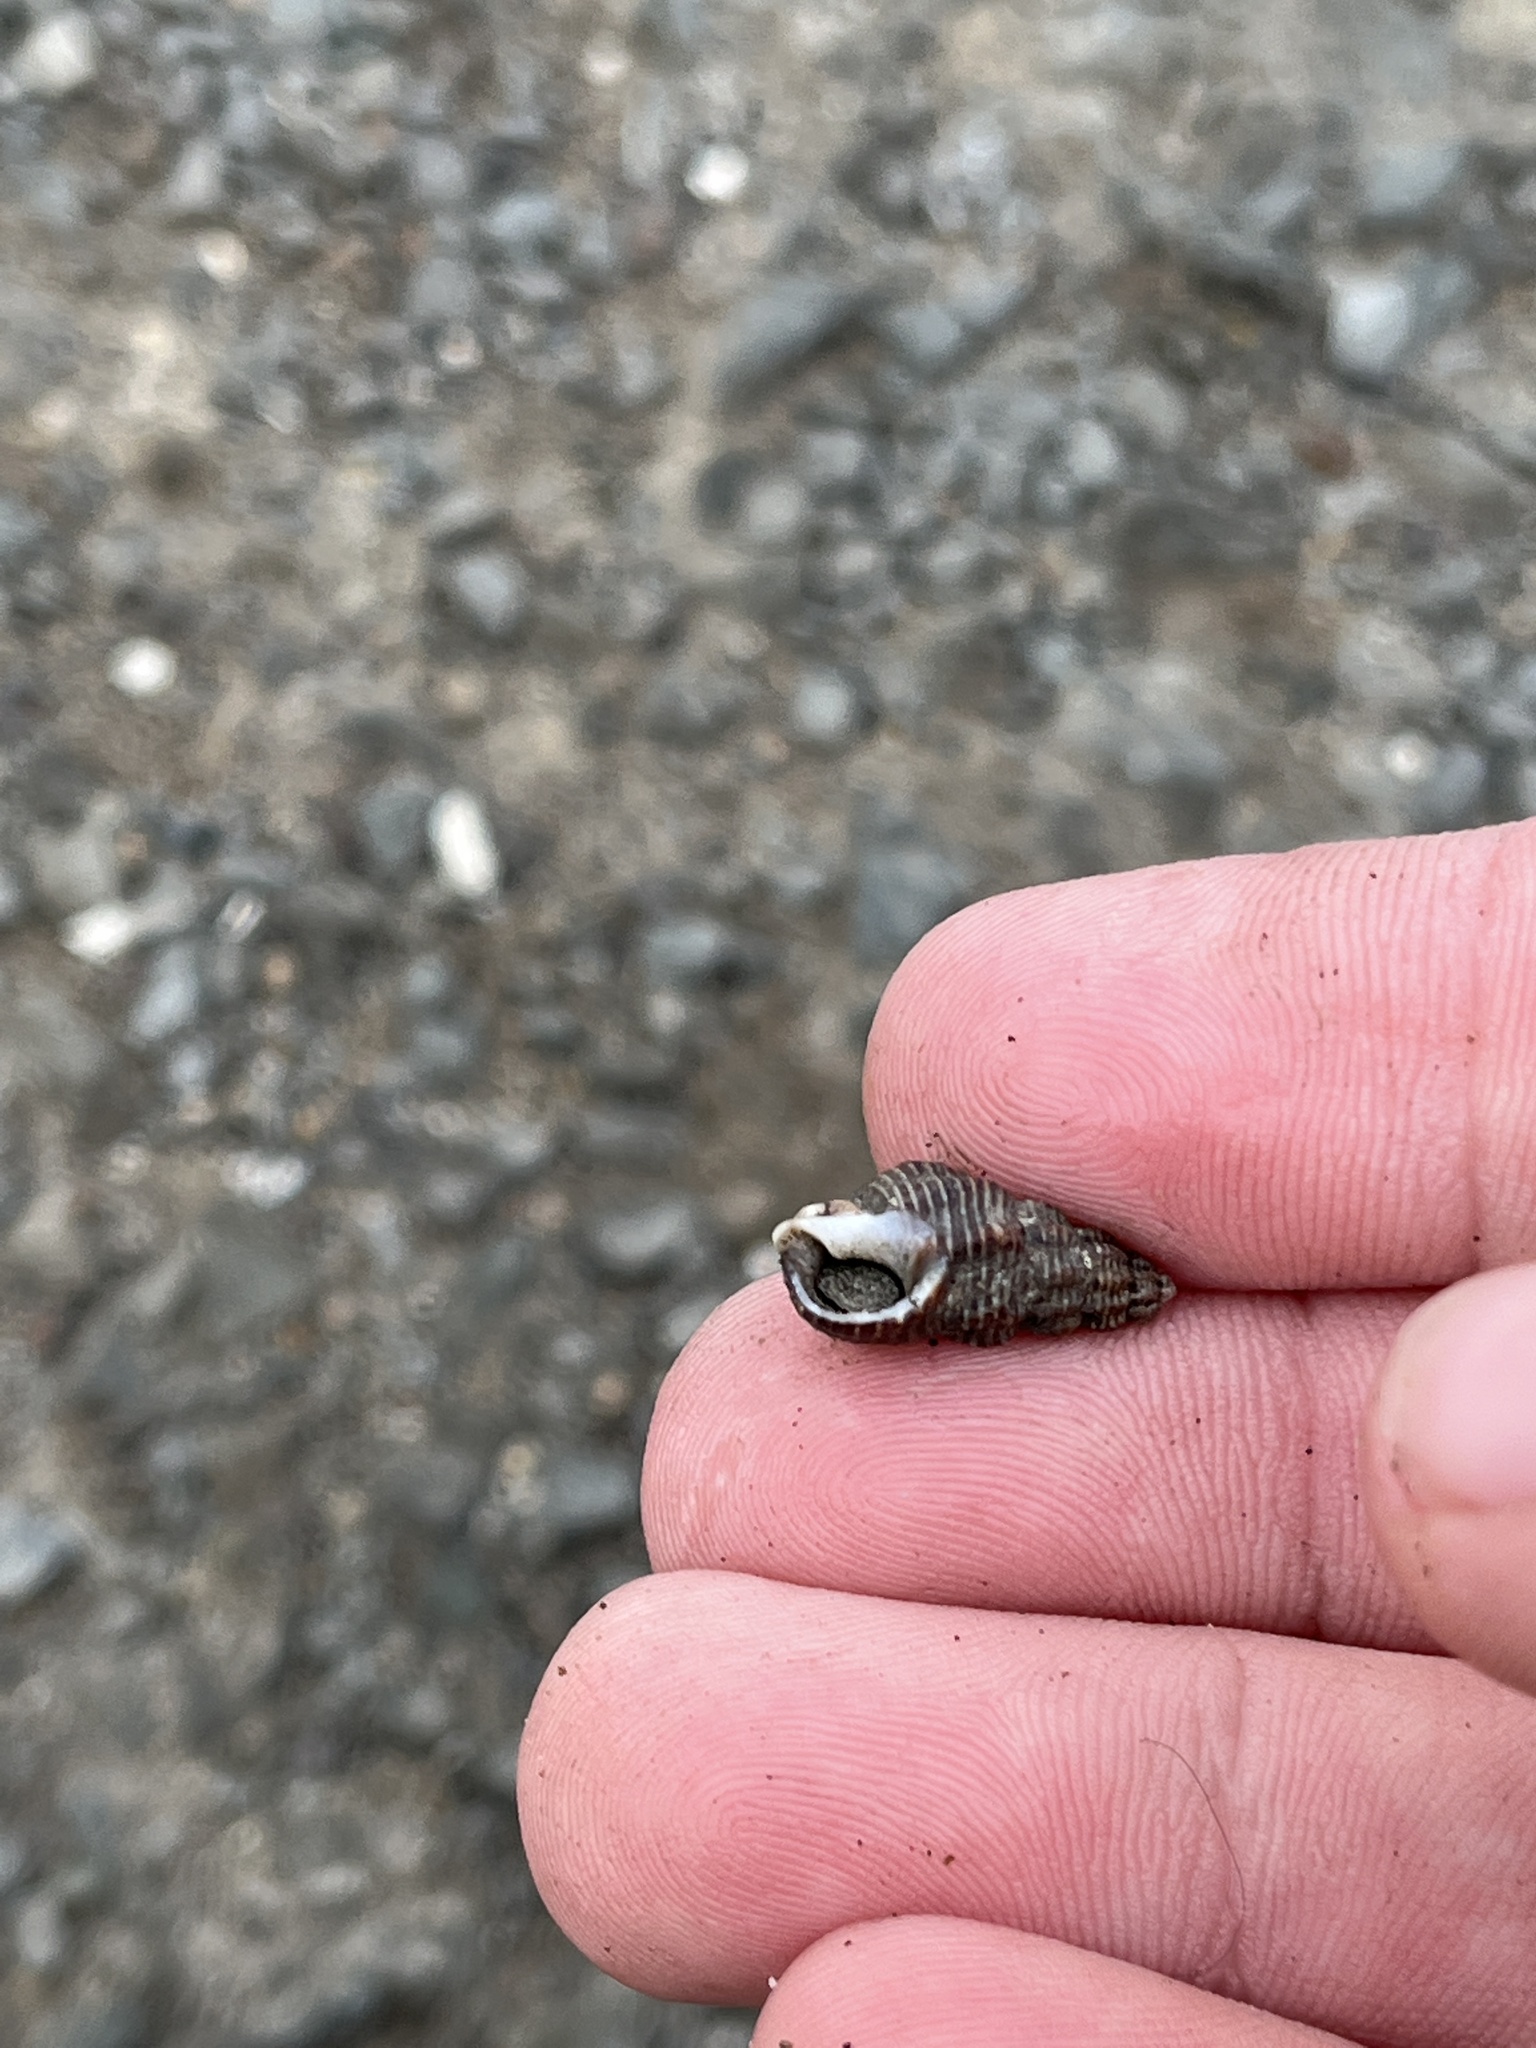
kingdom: Animalia
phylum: Mollusca
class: Gastropoda
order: Neogastropoda
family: Nassariidae
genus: Nassarius
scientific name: Nassarius mendicus
